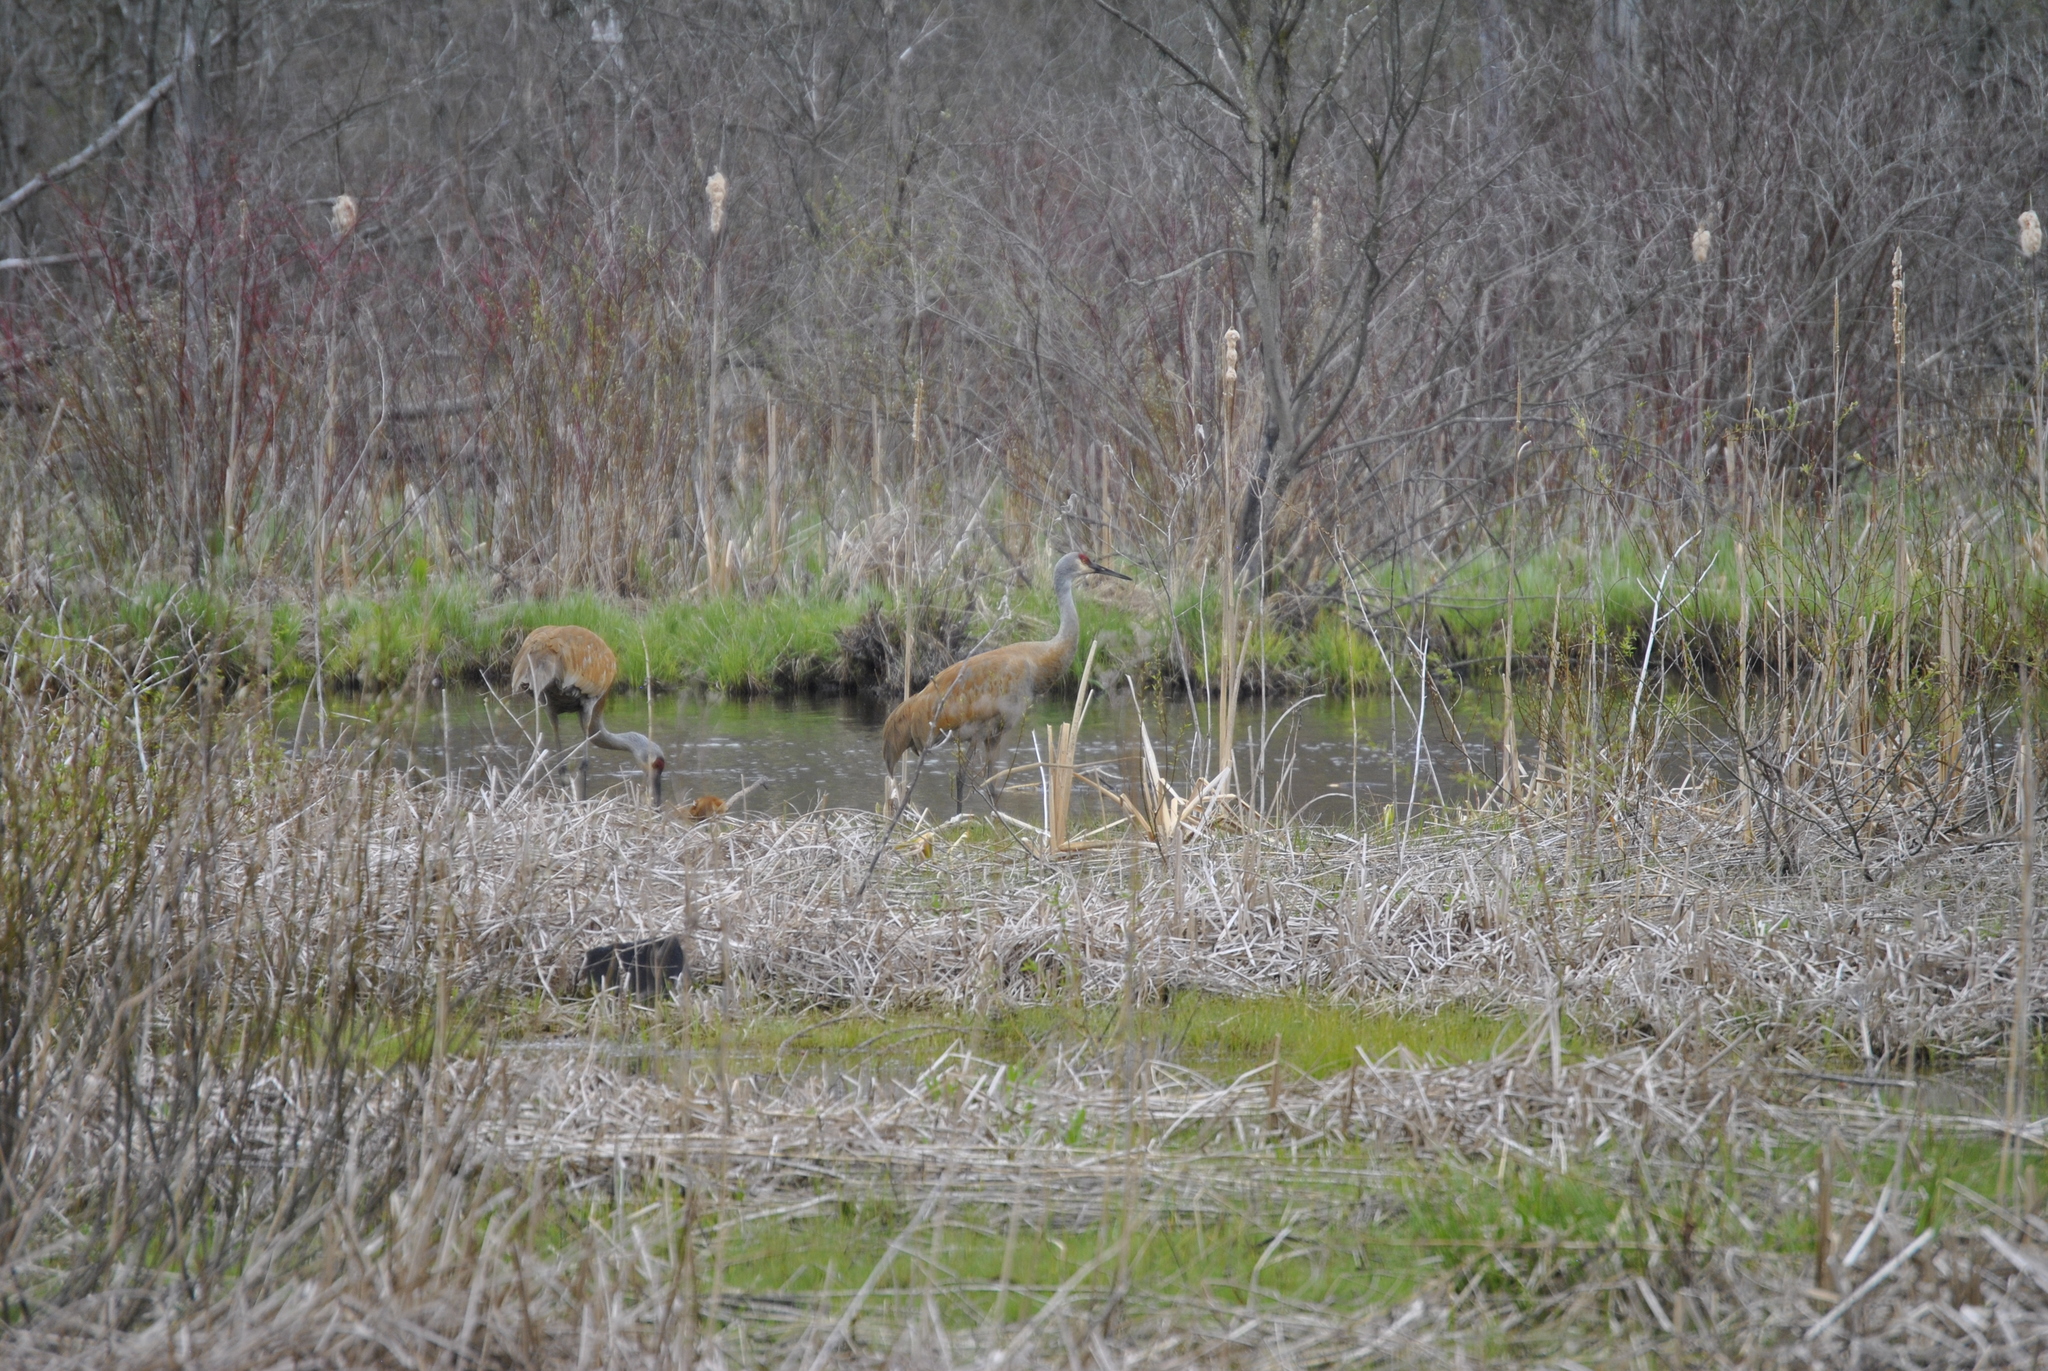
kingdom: Animalia
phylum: Chordata
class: Aves
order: Gruiformes
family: Gruidae
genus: Grus
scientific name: Grus canadensis
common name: Sandhill crane
